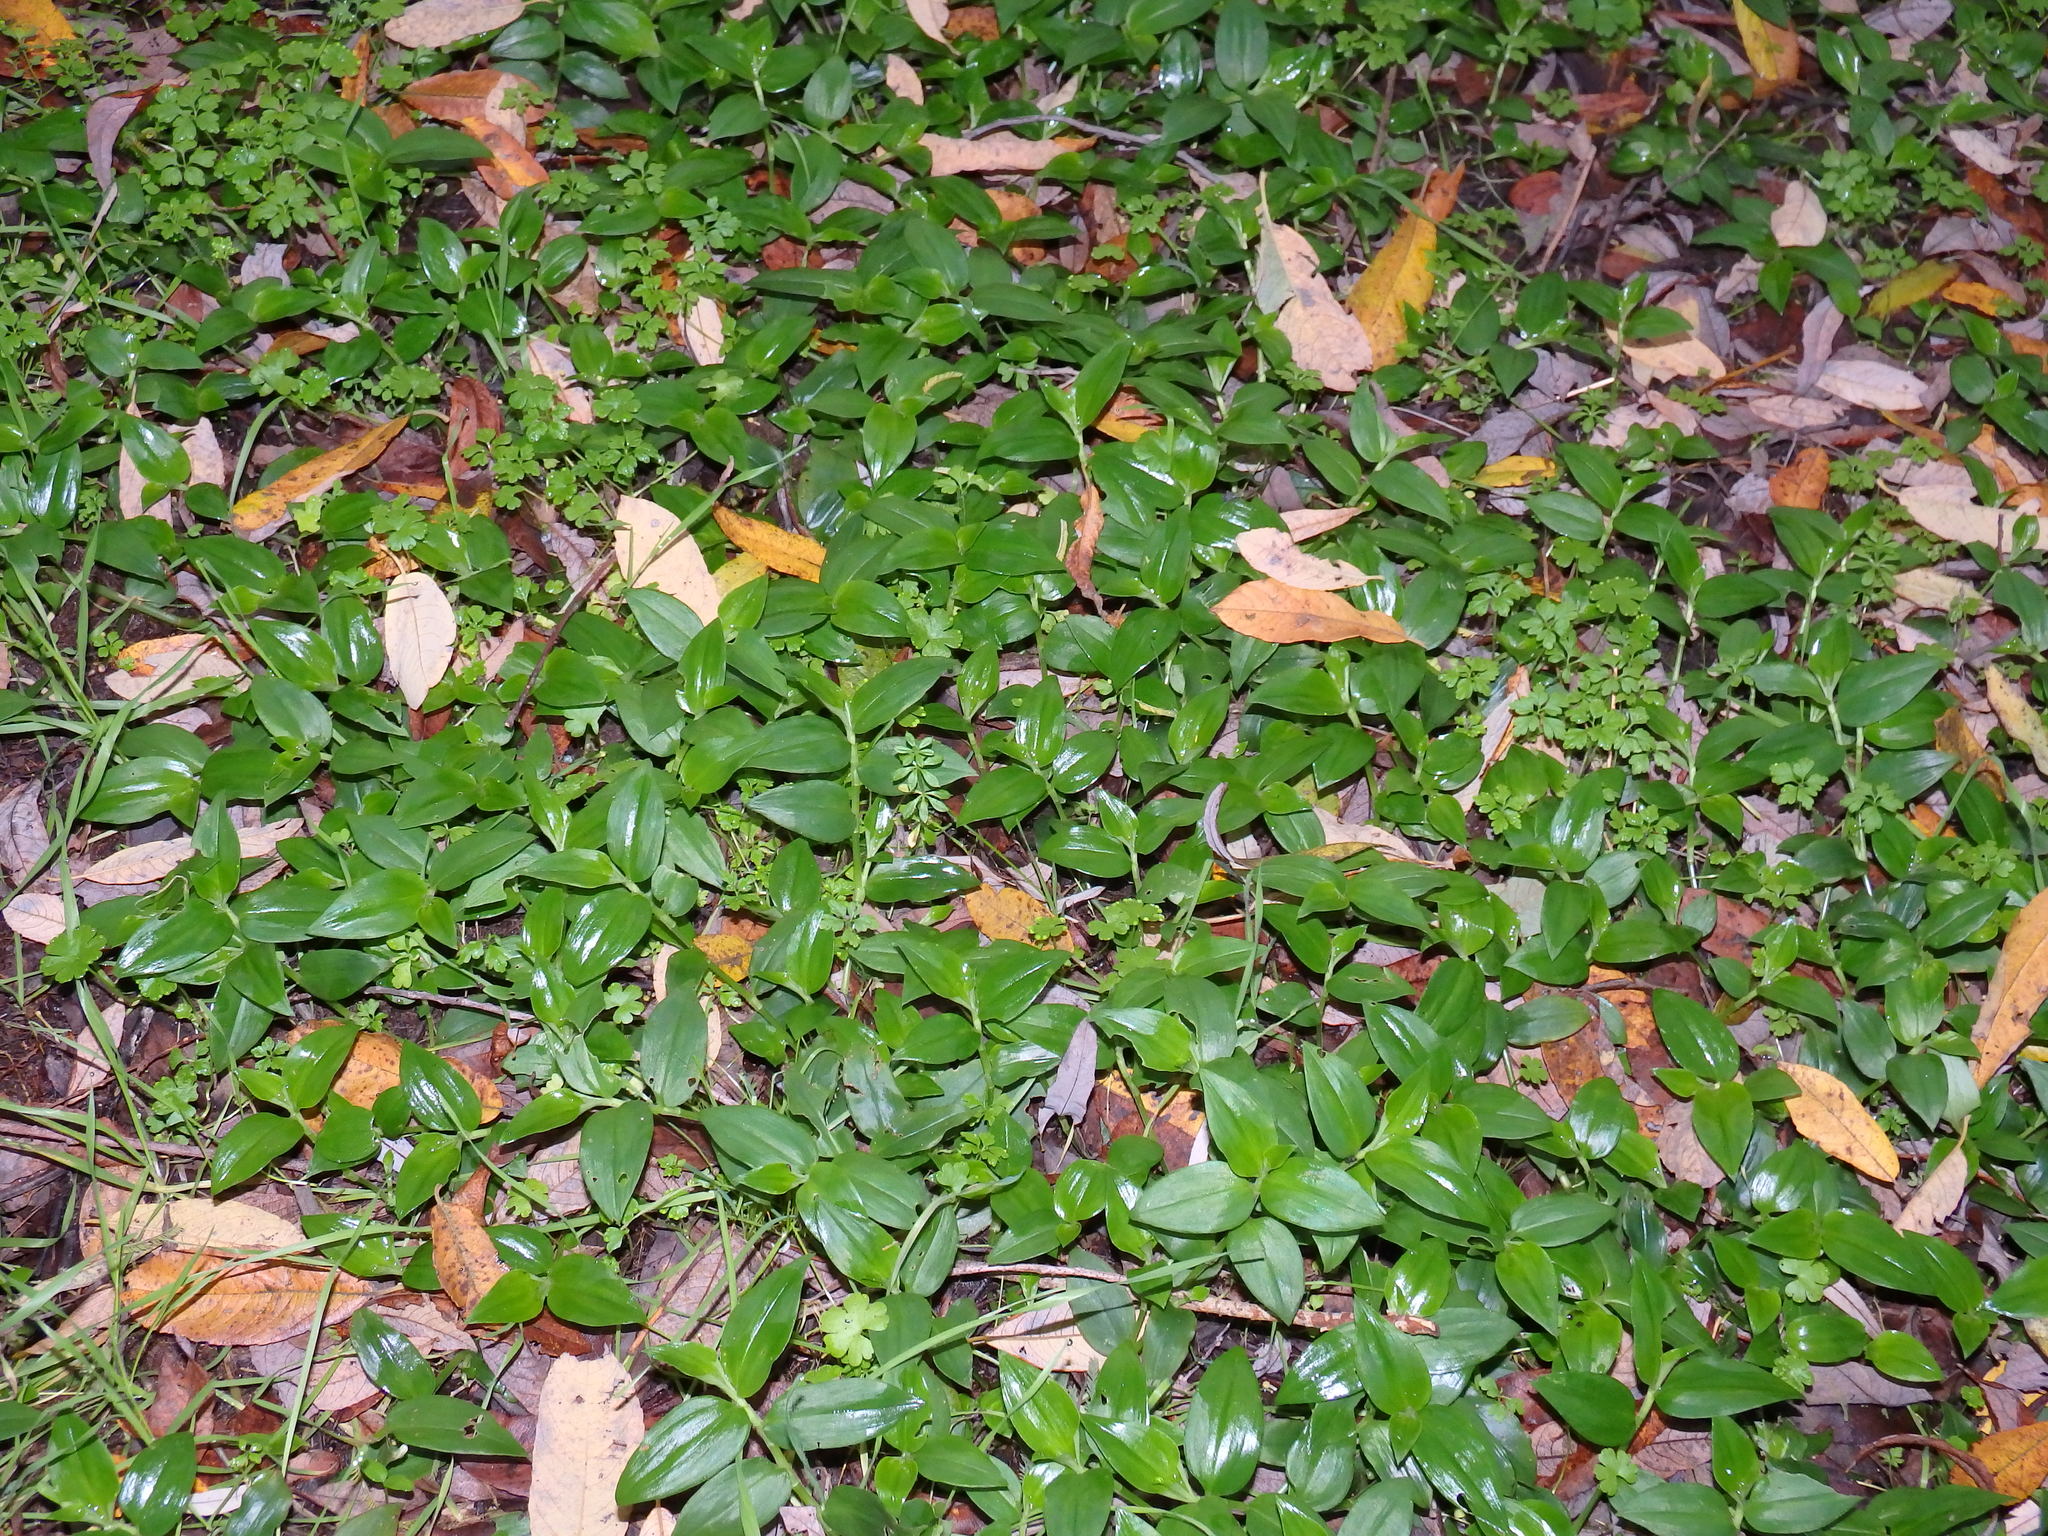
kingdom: Plantae
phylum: Tracheophyta
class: Liliopsida
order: Commelinales
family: Commelinaceae
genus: Tradescantia
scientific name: Tradescantia fluminensis
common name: Wandering-jew
